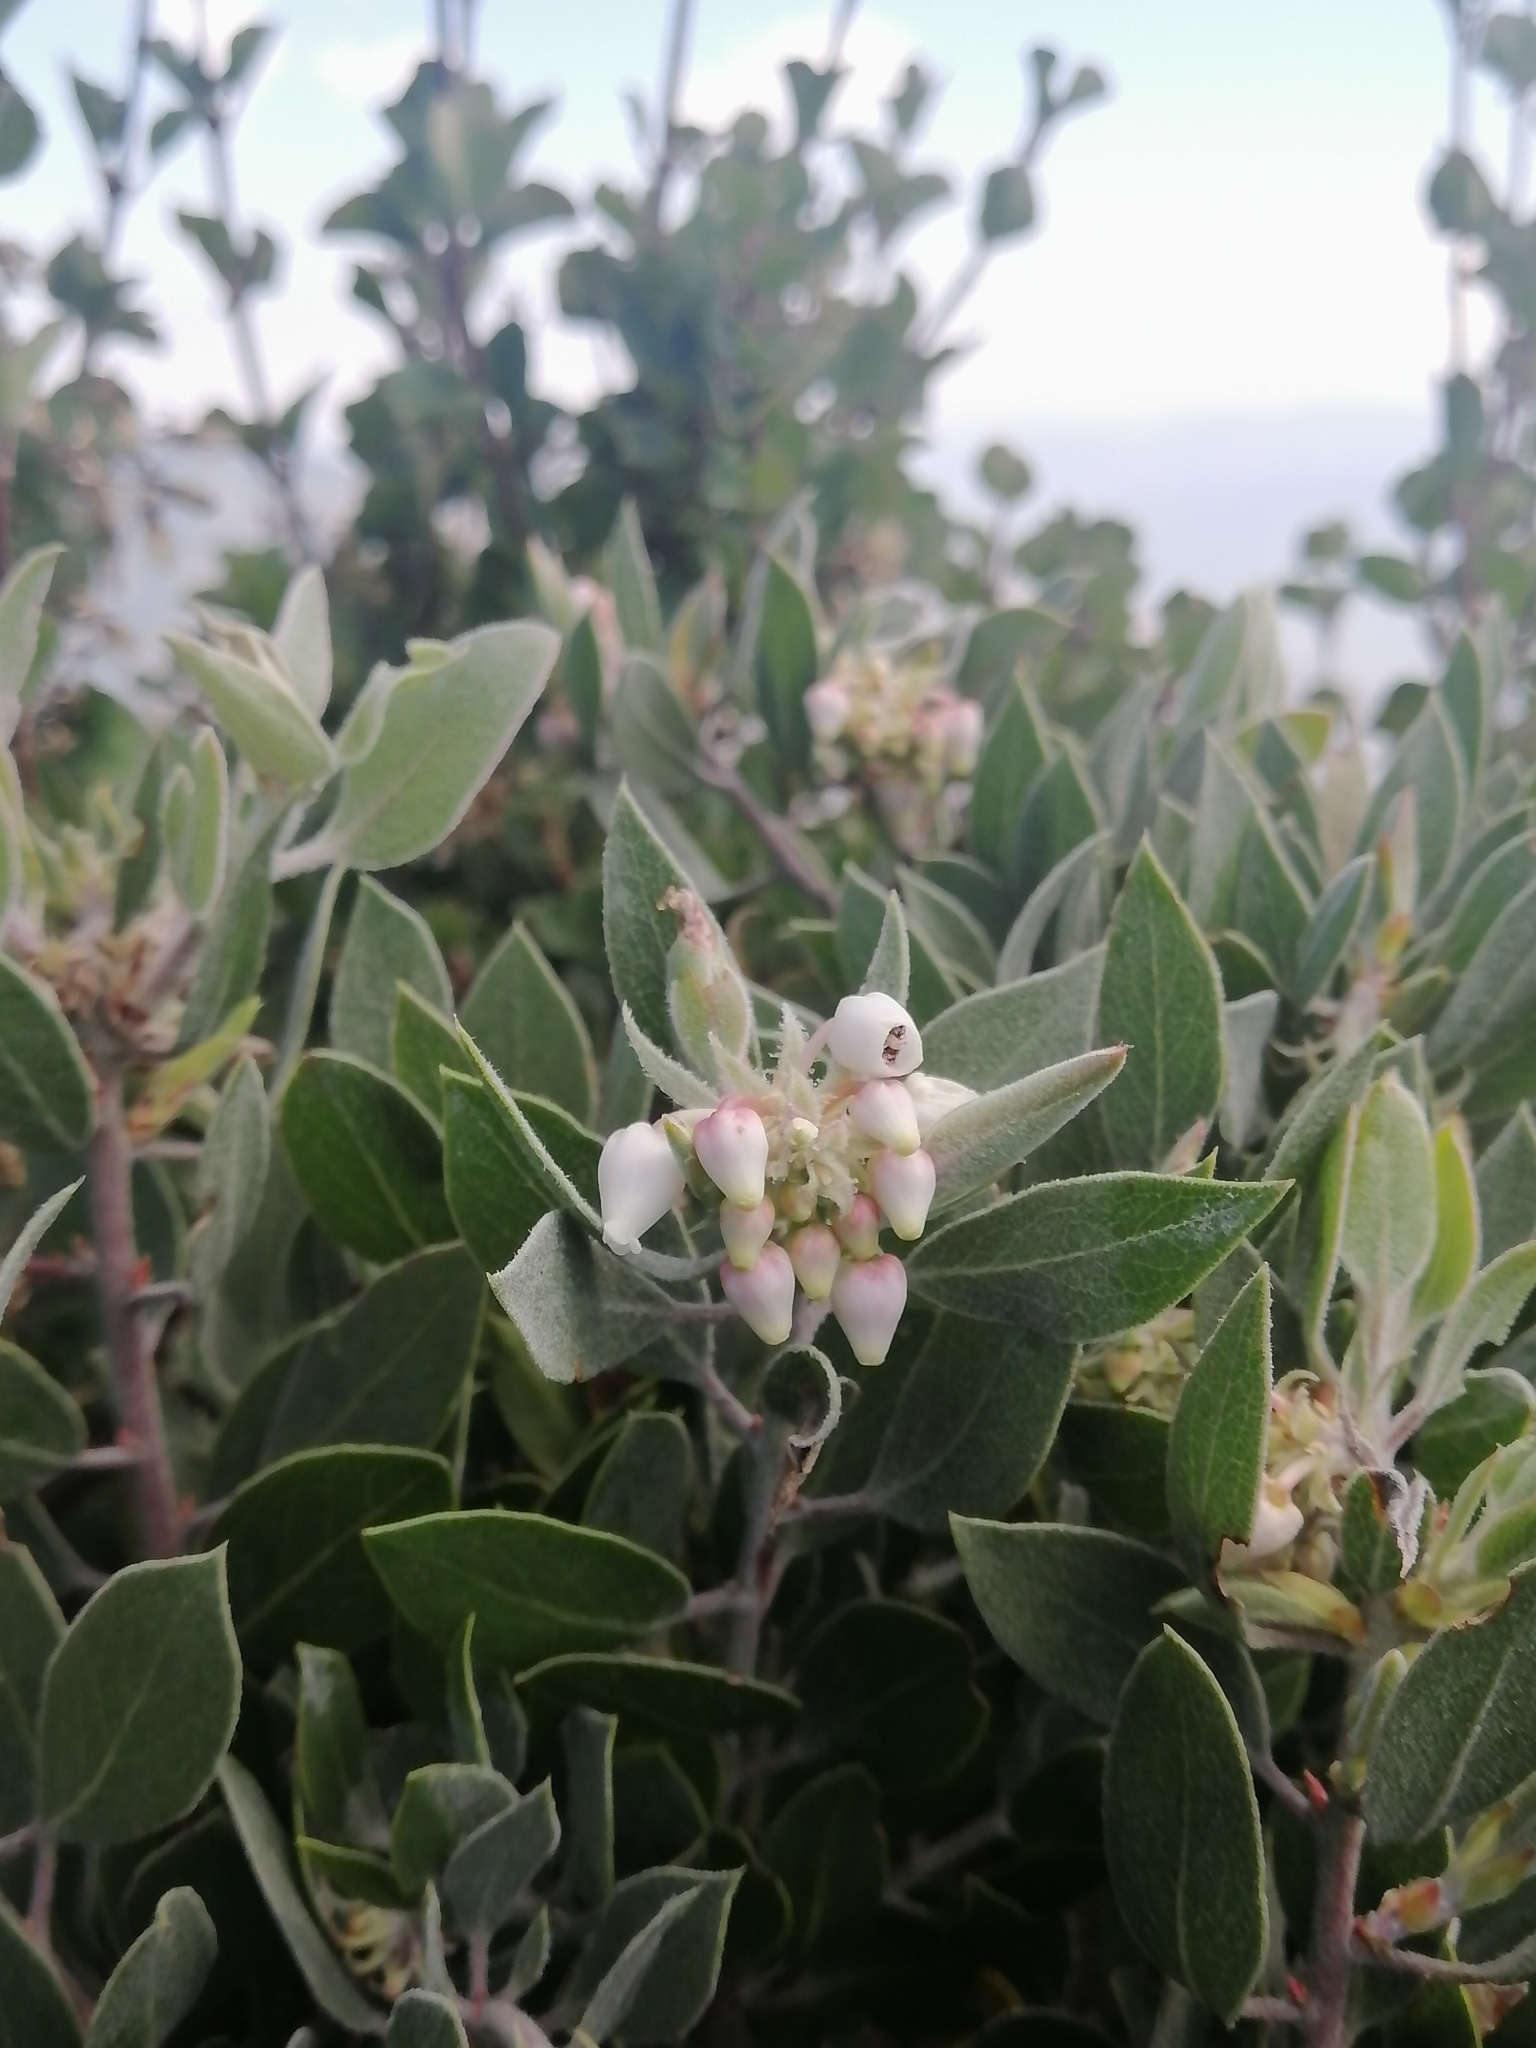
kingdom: Plantae
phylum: Tracheophyta
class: Magnoliopsida
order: Ericales
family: Ericaceae
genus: Arctostaphylos
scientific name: Arctostaphylos pungens
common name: Mexican manzanita
